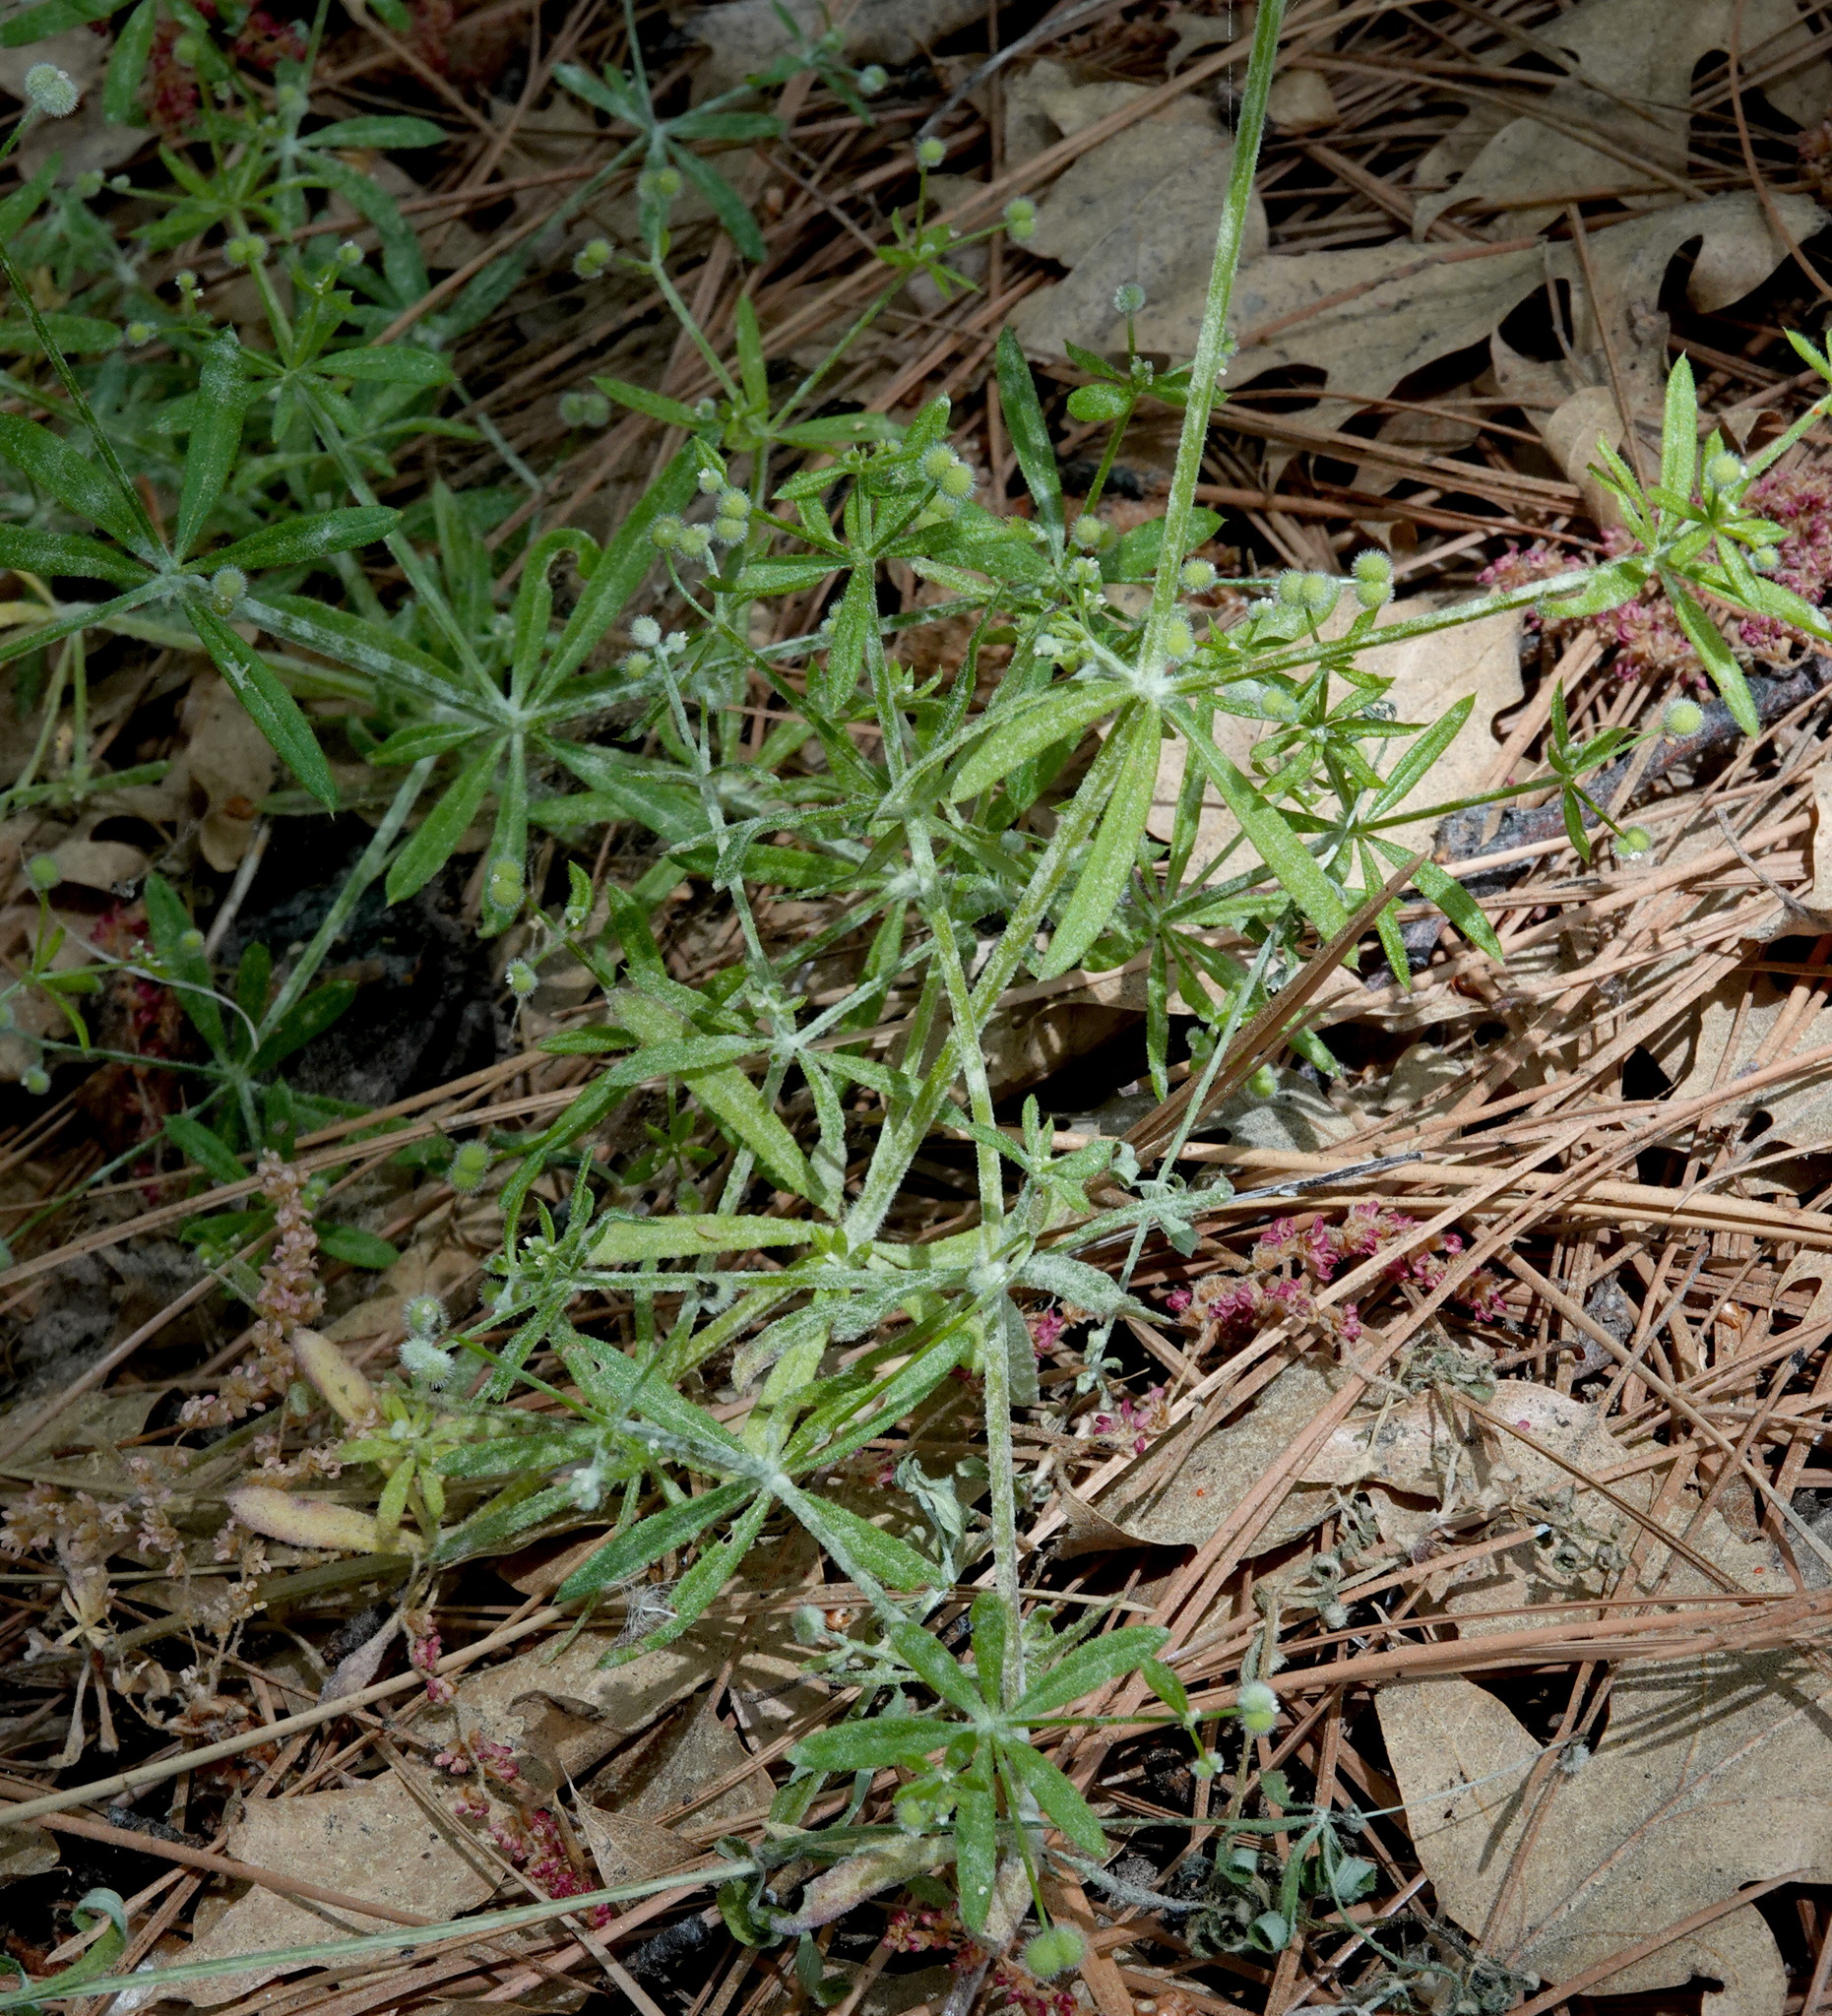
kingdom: Plantae
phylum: Tracheophyta
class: Magnoliopsida
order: Gentianales
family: Rubiaceae
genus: Galium
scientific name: Galium aparine
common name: Cleavers
